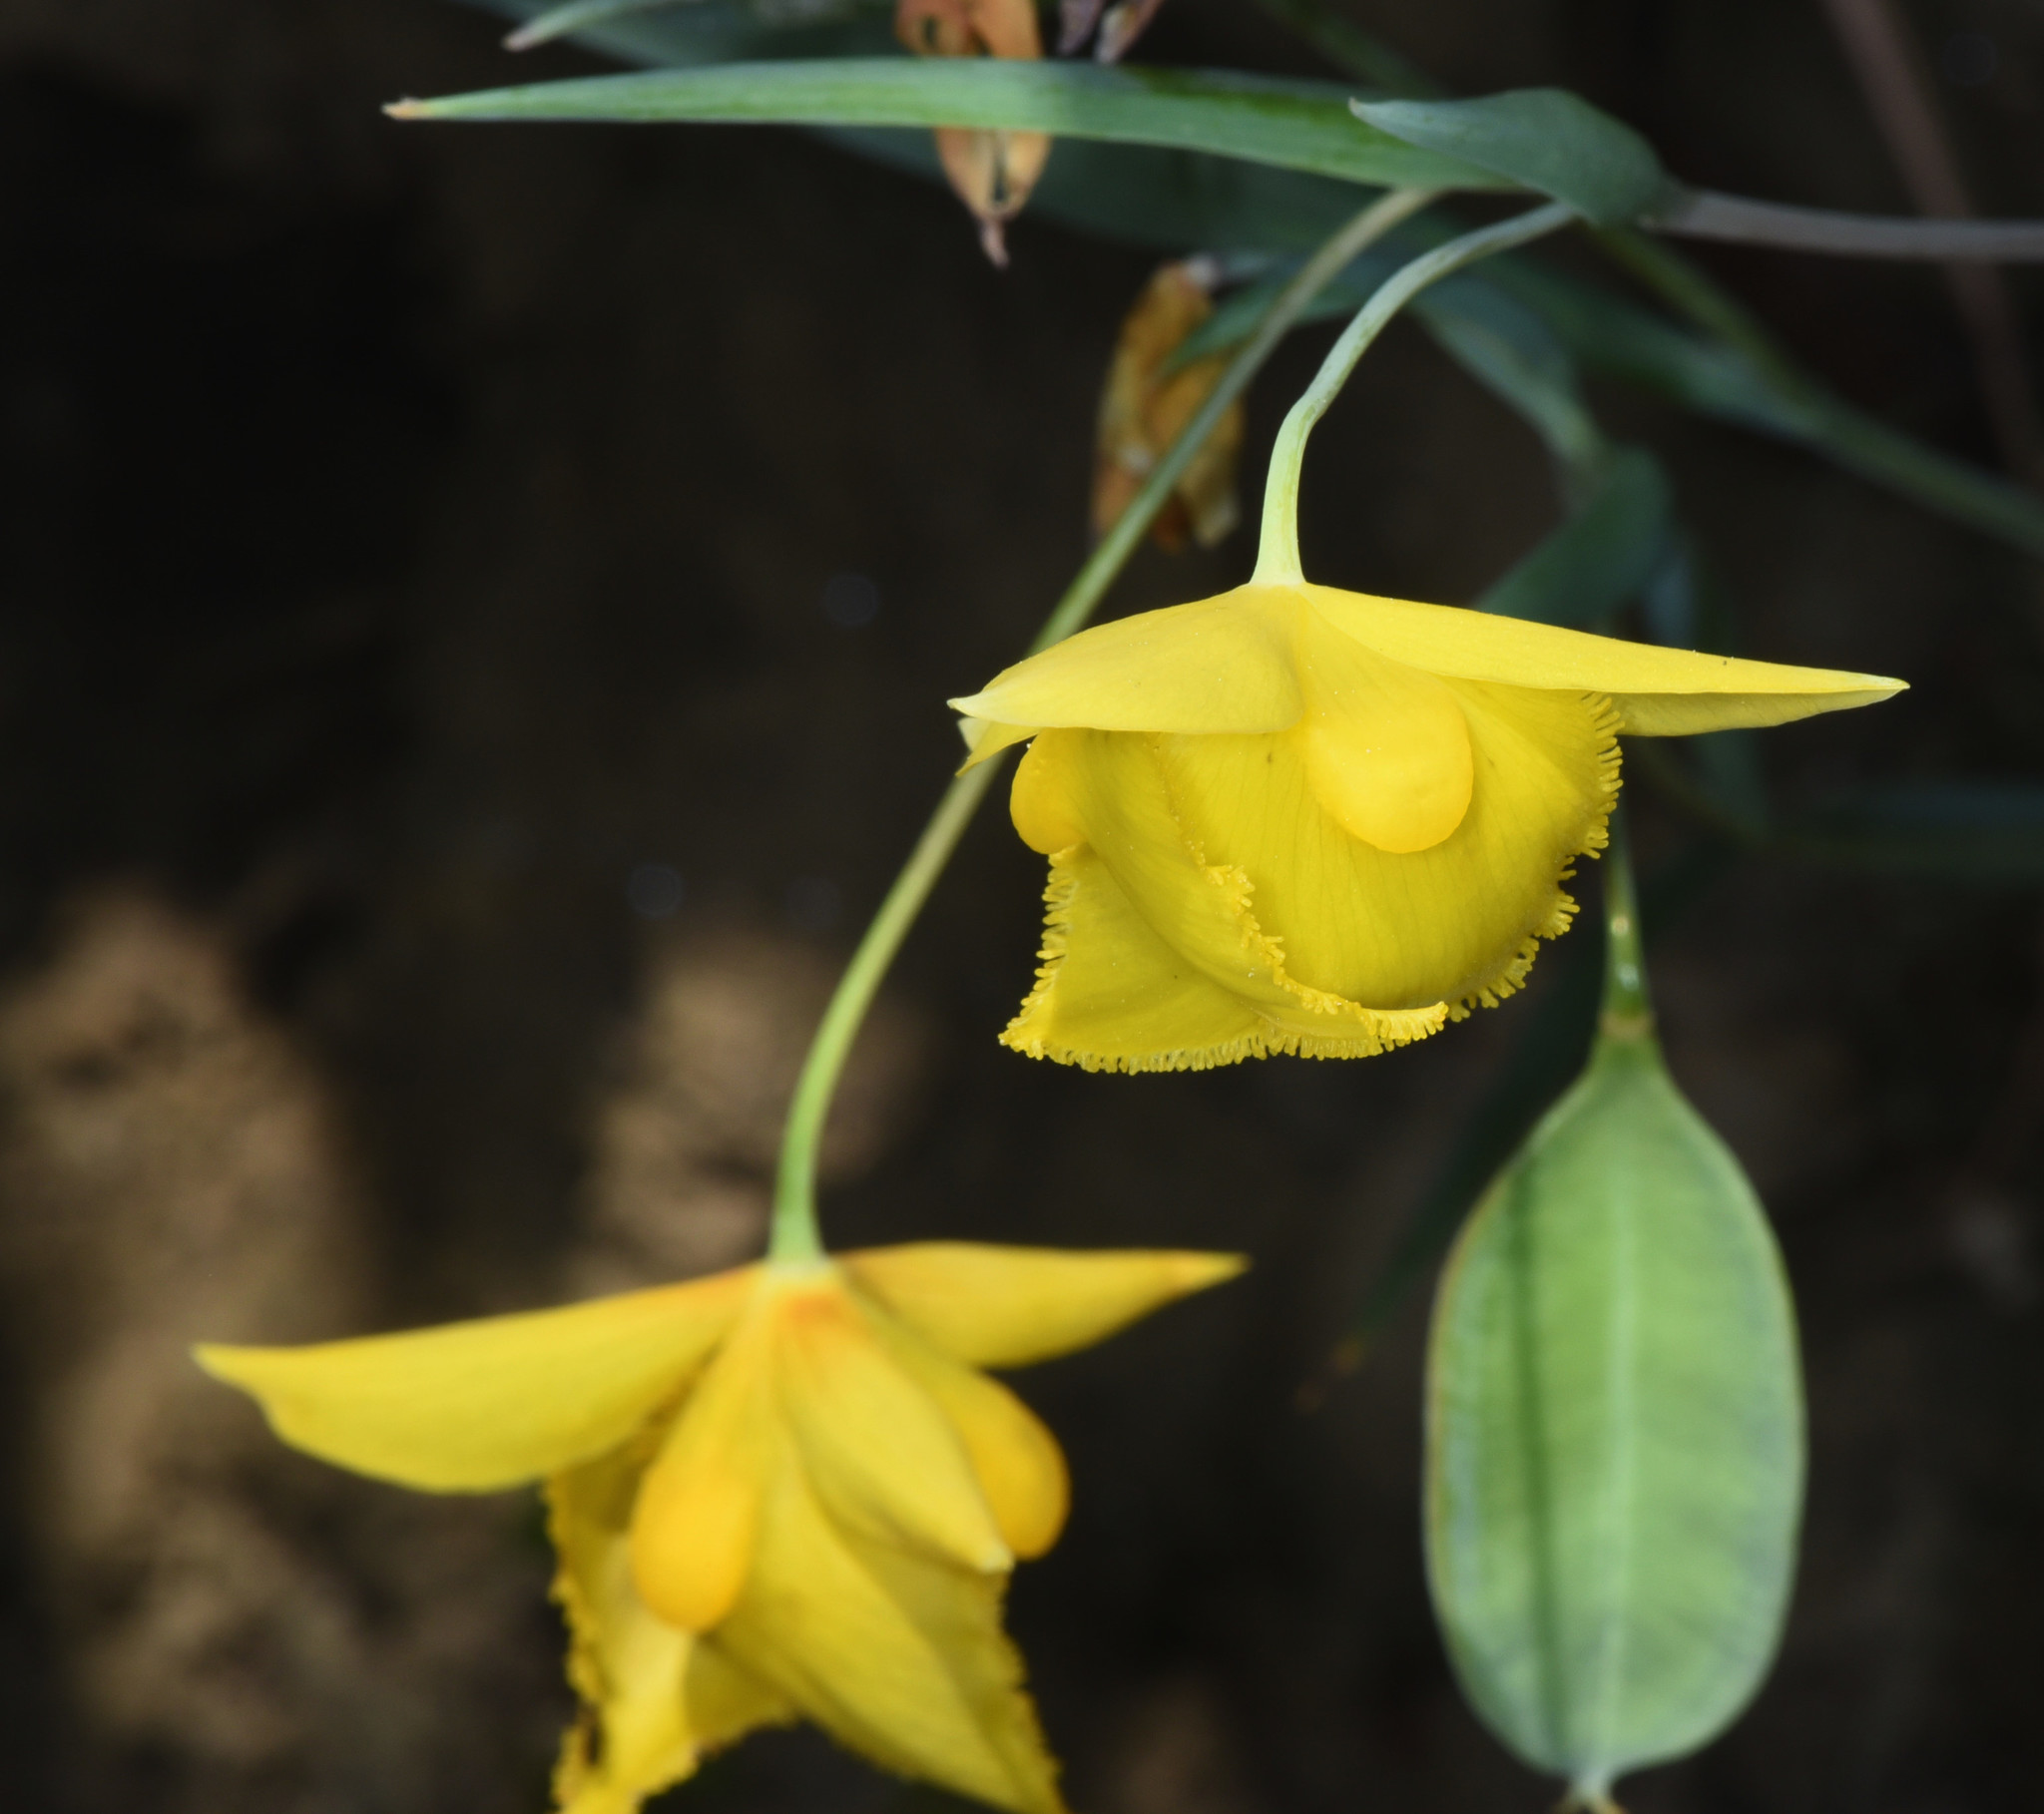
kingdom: Plantae
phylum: Tracheophyta
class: Liliopsida
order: Liliales
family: Liliaceae
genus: Calochortus
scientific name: Calochortus amabilis
